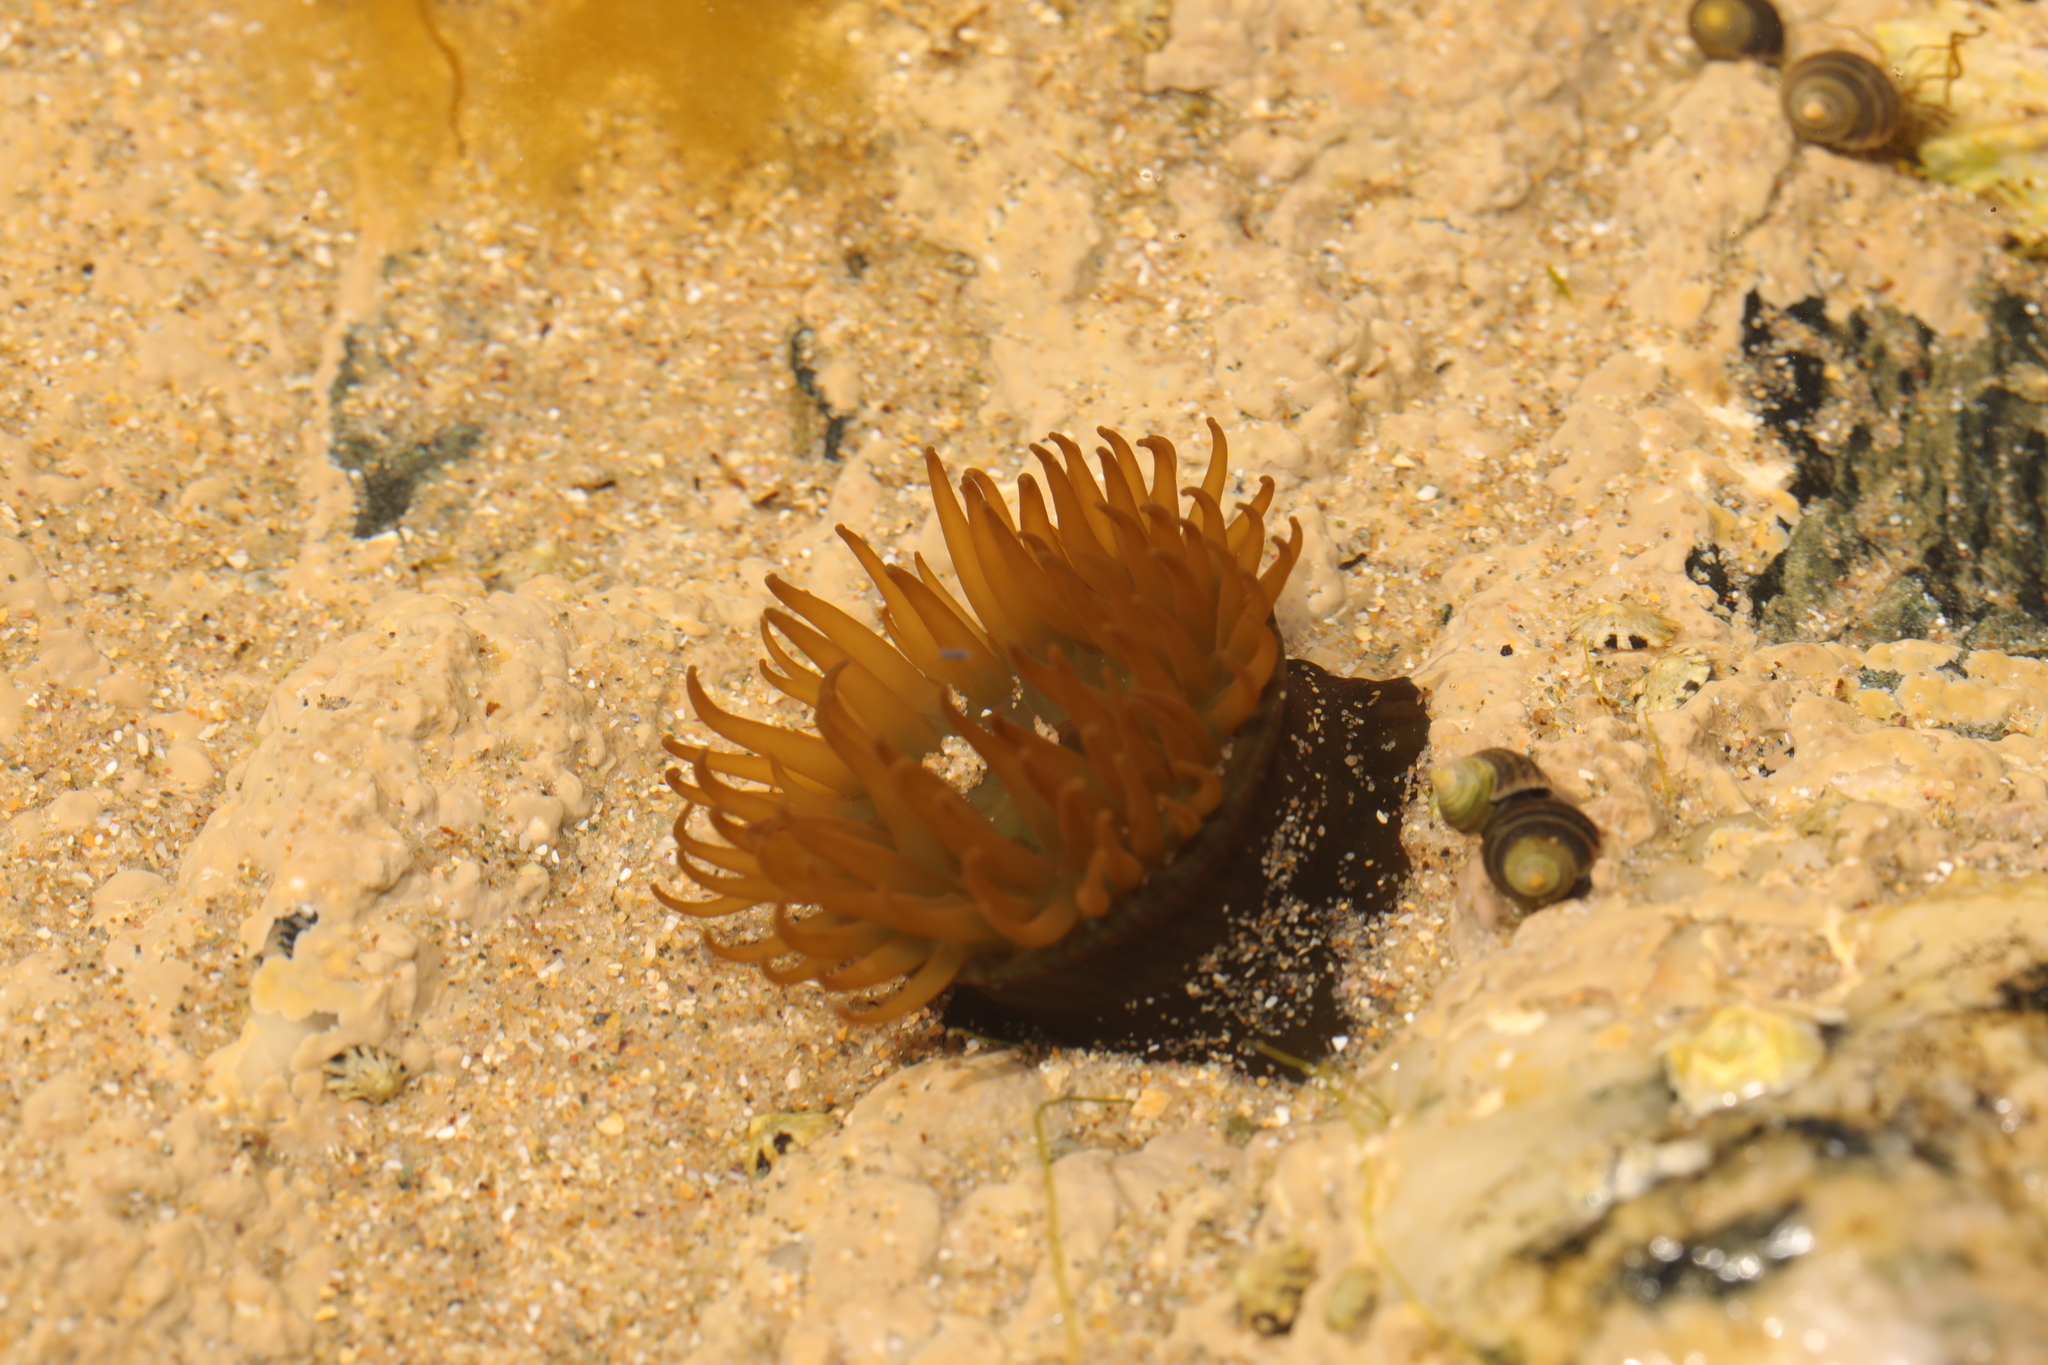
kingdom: Animalia
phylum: Cnidaria
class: Anthozoa
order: Actiniaria
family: Actiniidae
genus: Actinia
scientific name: Actinia equina
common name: Beadlet anemone
